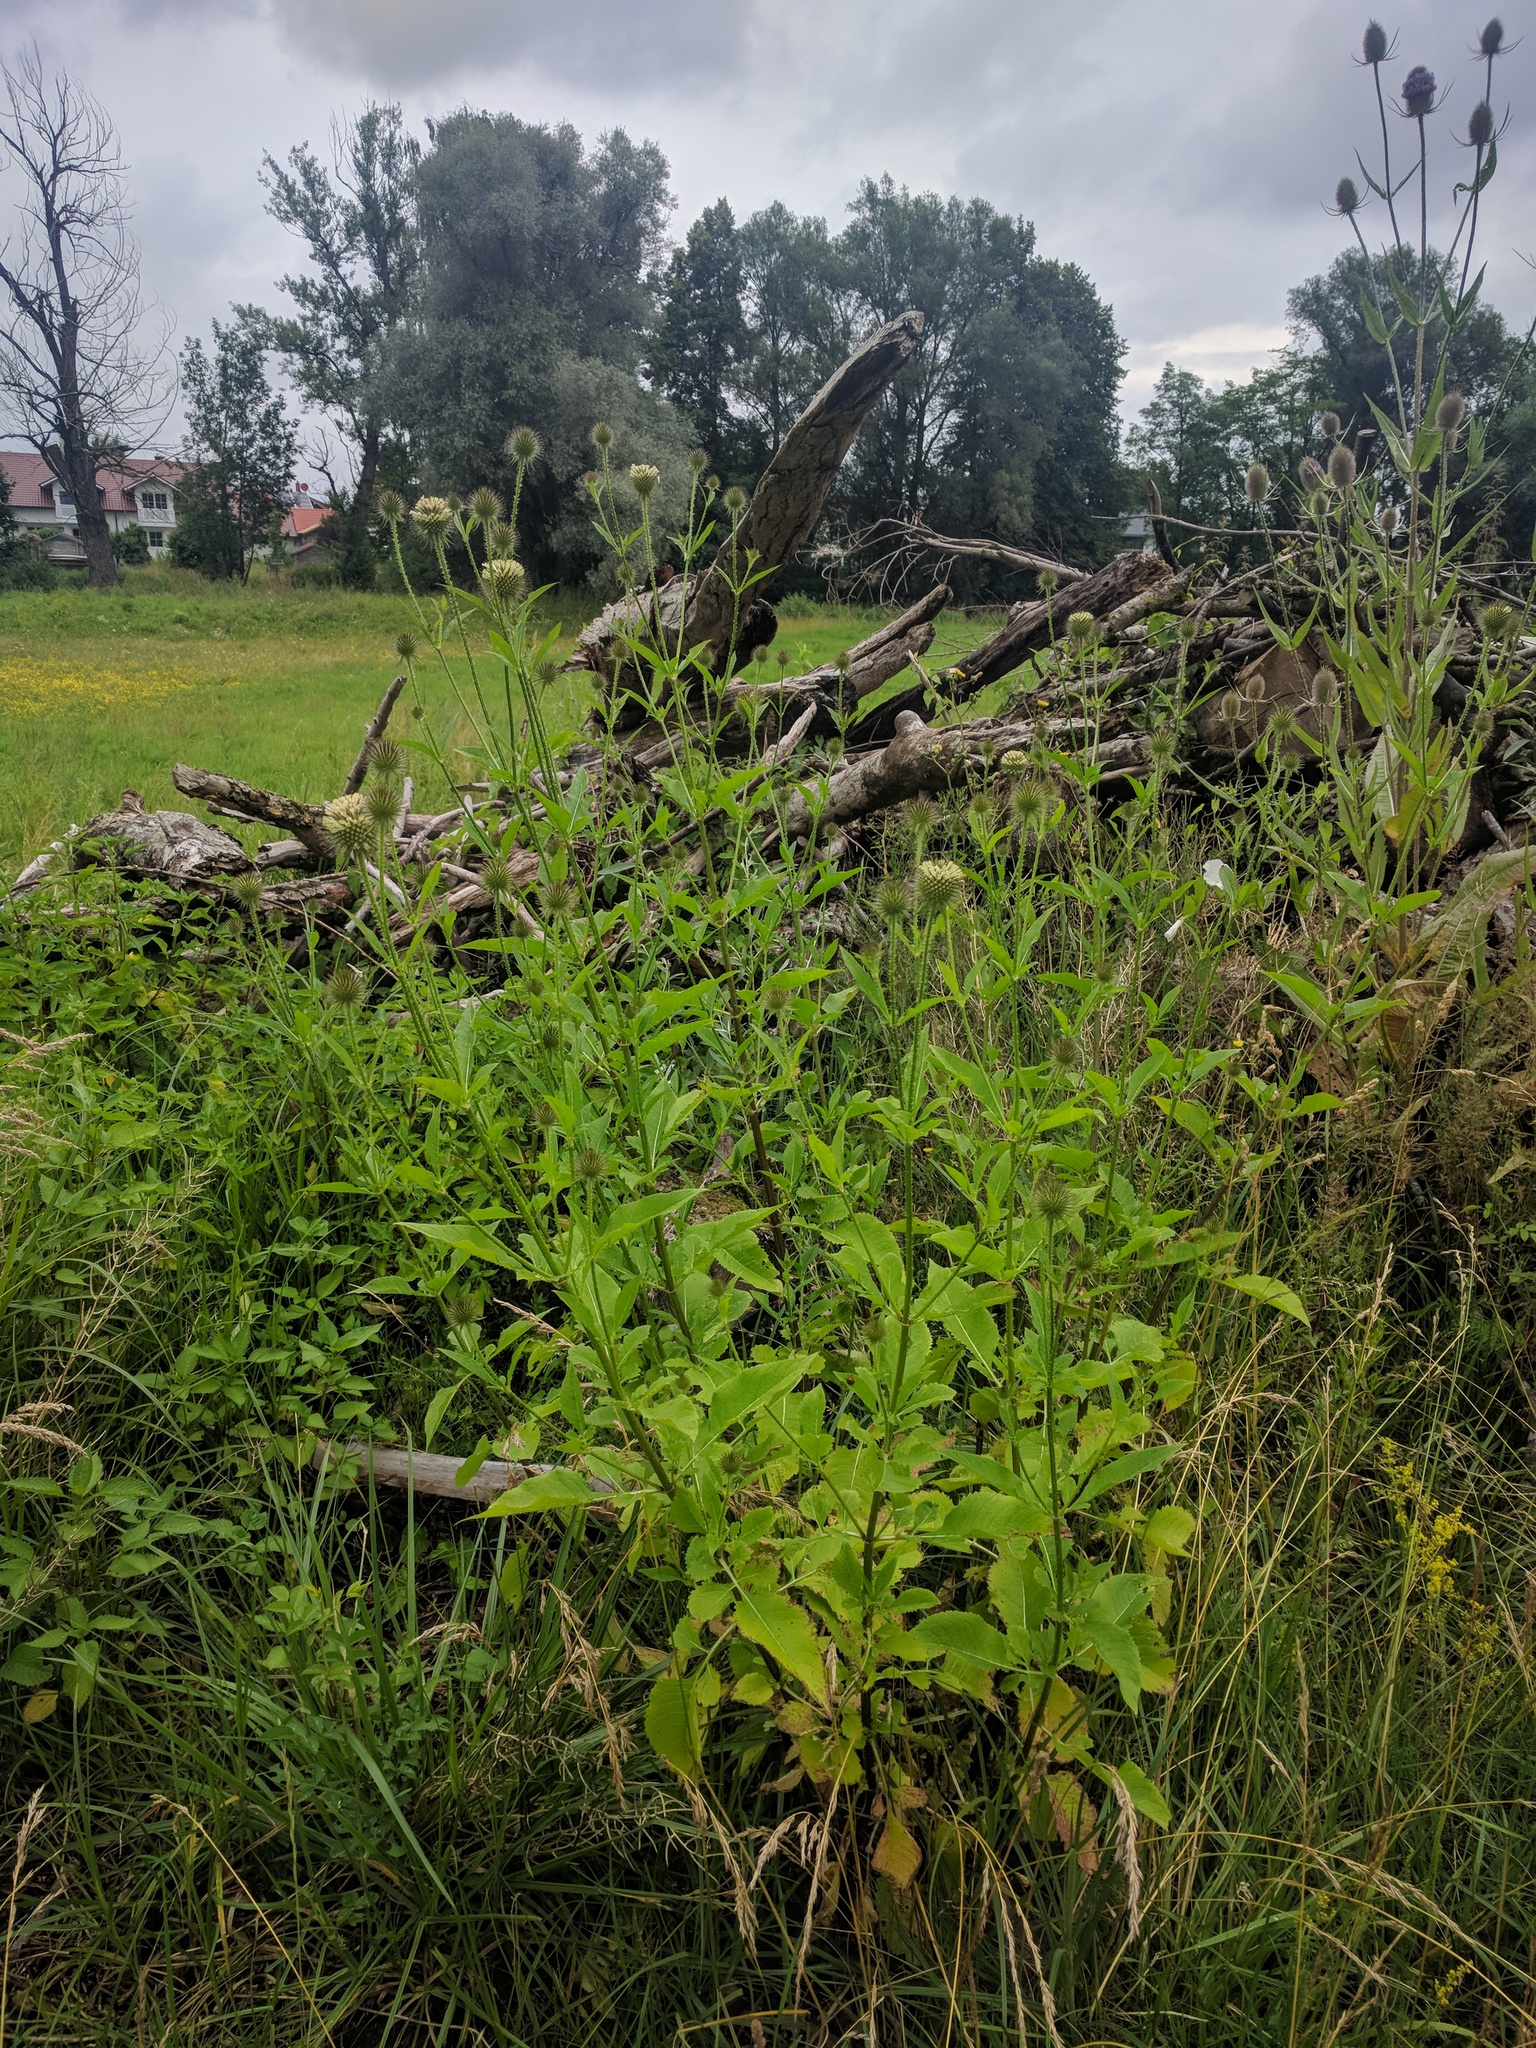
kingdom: Plantae
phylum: Tracheophyta
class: Magnoliopsida
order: Dipsacales
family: Caprifoliaceae
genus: Dipsacus
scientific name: Dipsacus strigosus
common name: Yellow-flowered teasel
